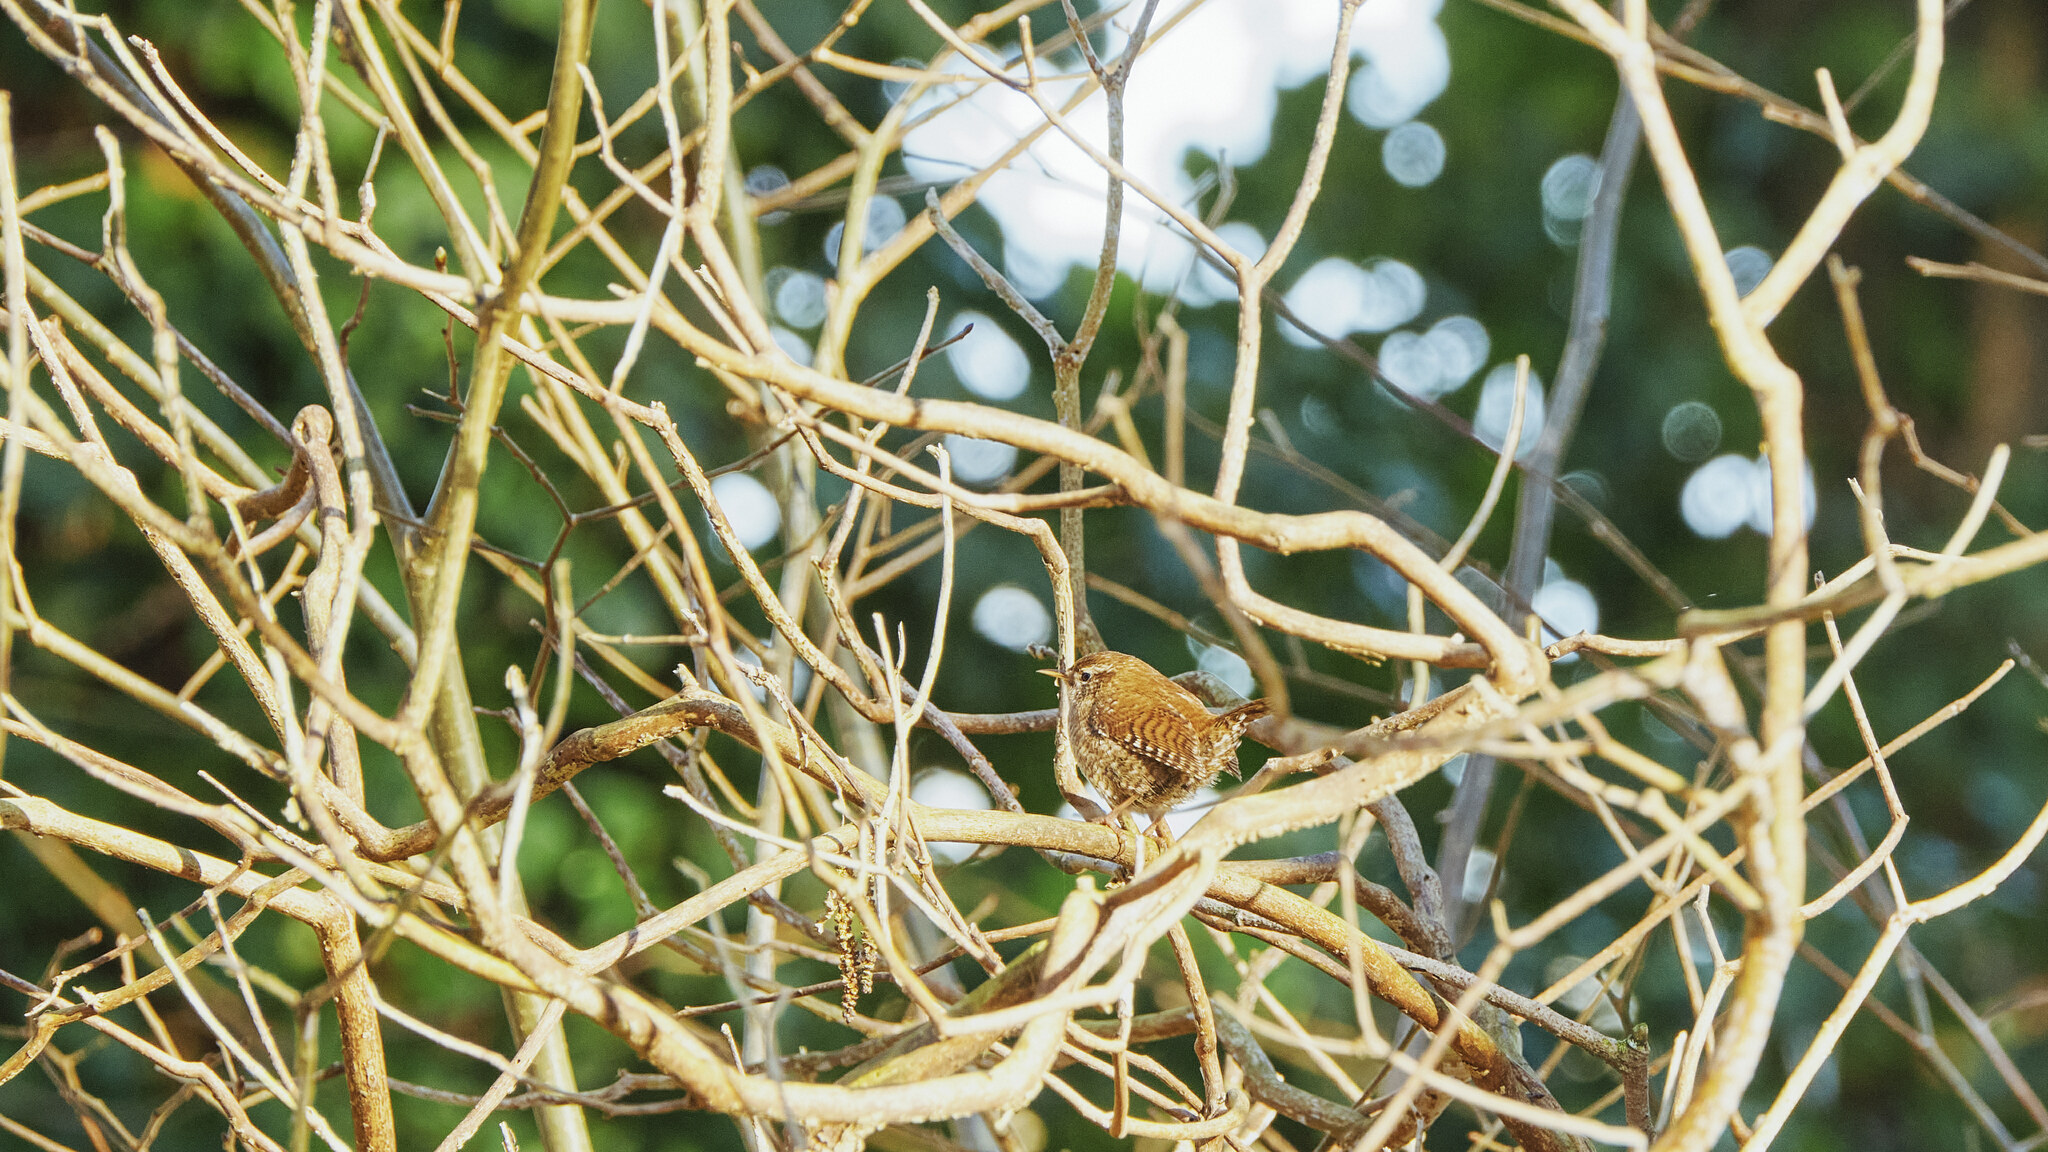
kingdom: Animalia
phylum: Chordata
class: Aves
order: Passeriformes
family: Troglodytidae
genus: Troglodytes
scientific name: Troglodytes troglodytes
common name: Eurasian wren
